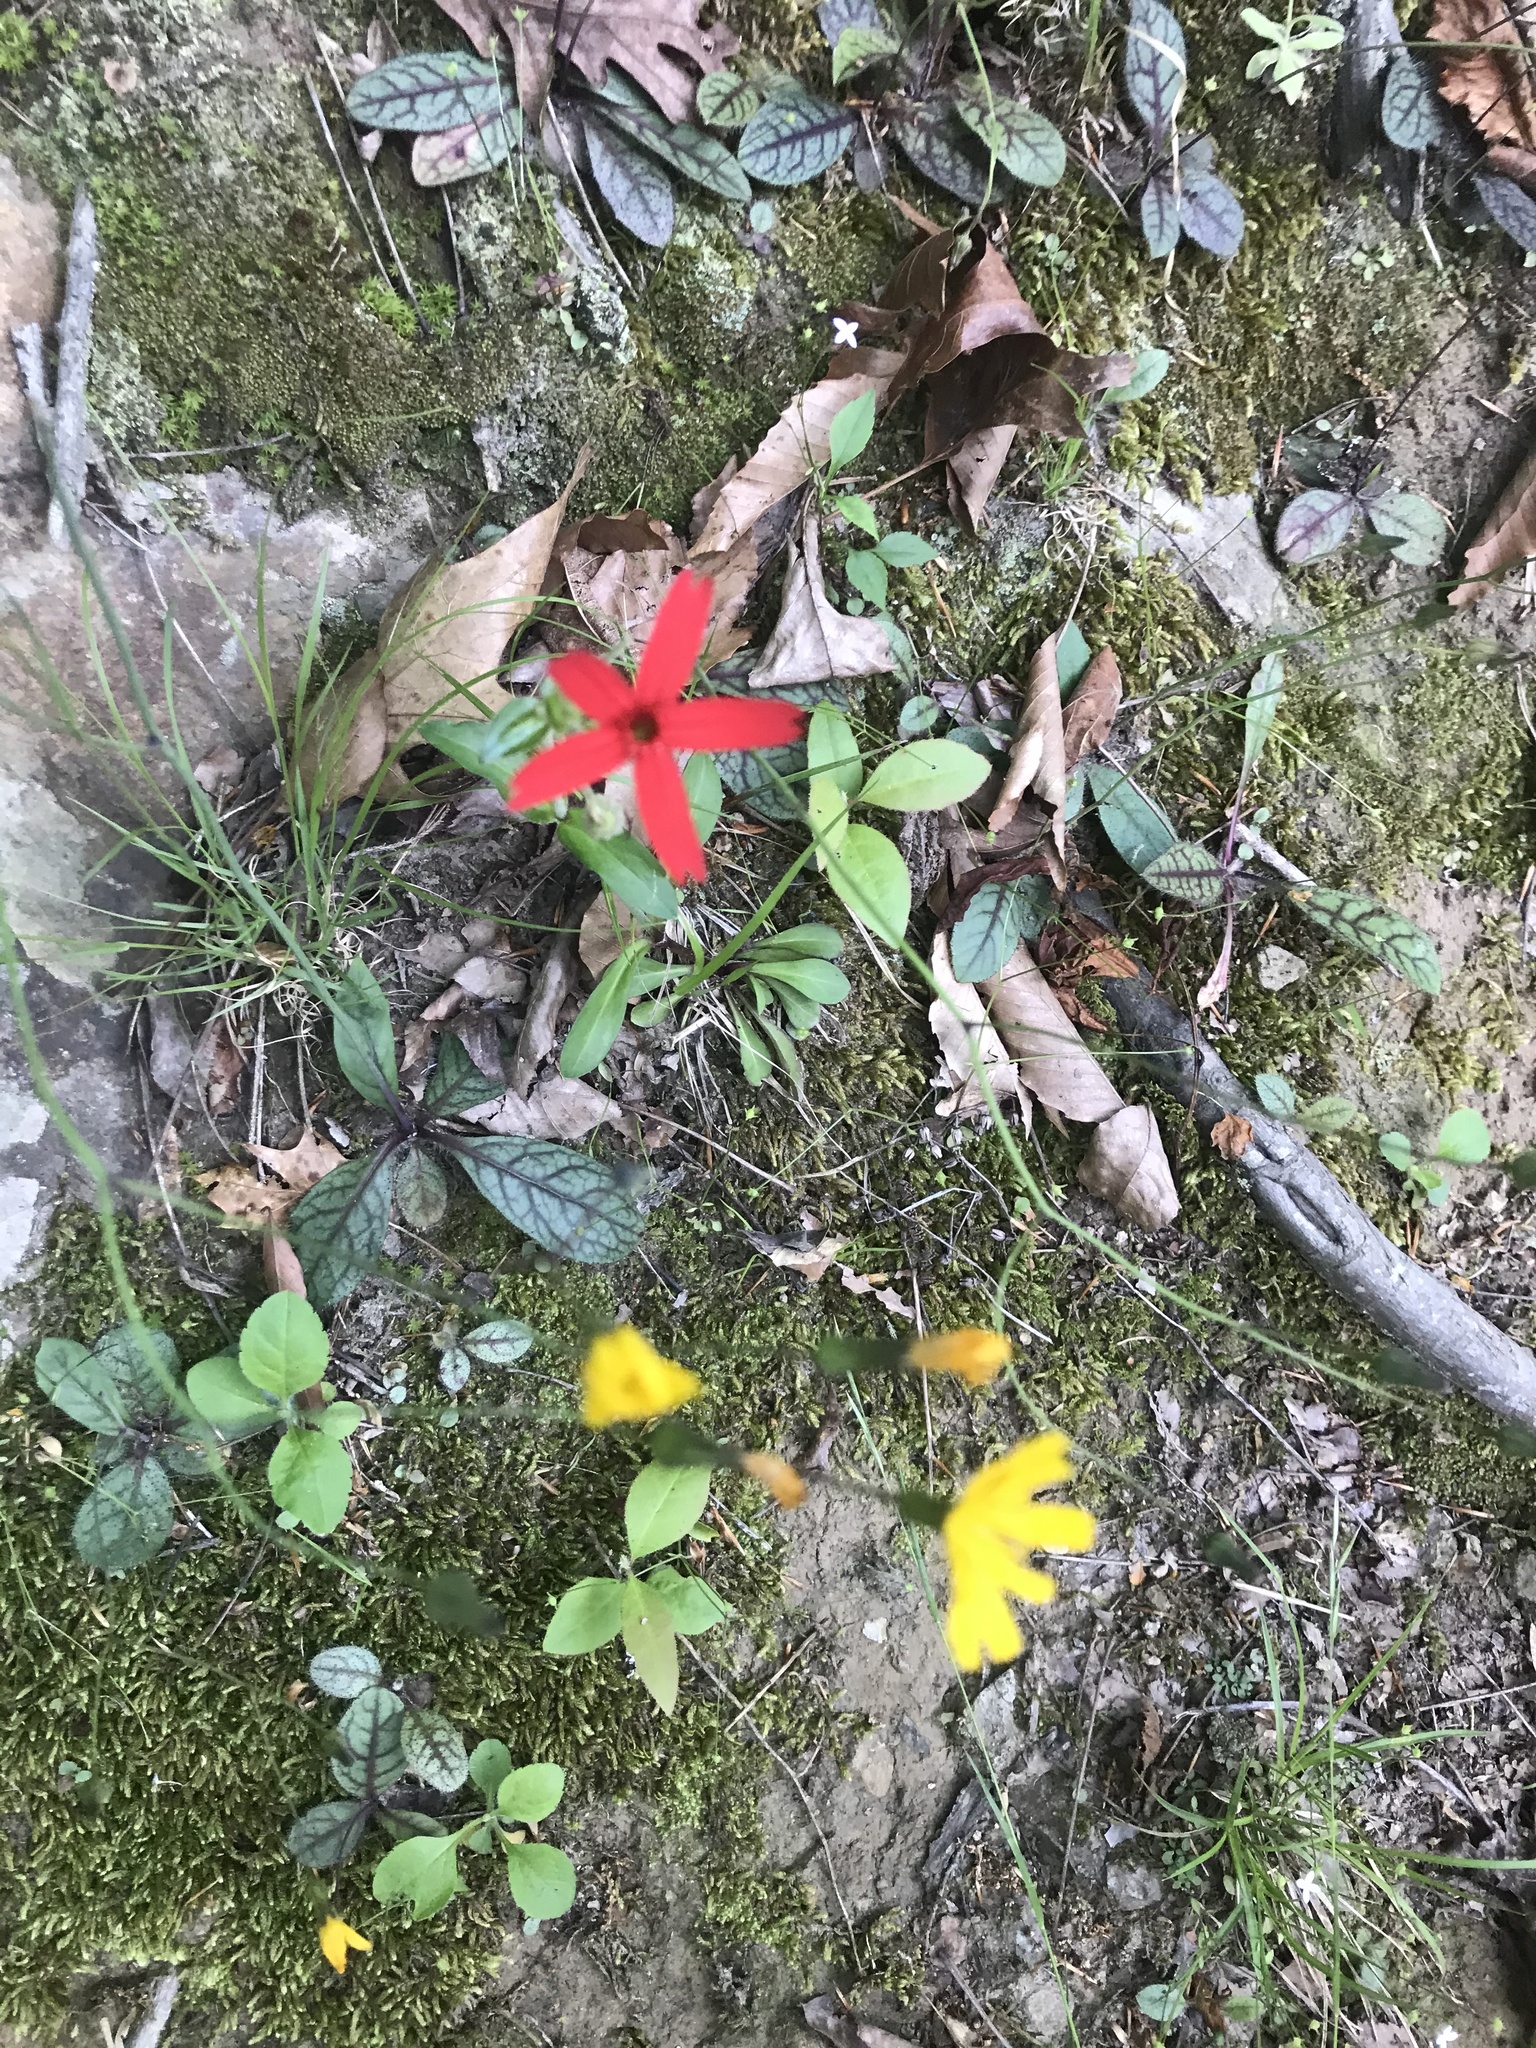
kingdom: Plantae
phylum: Tracheophyta
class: Magnoliopsida
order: Caryophyllales
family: Caryophyllaceae
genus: Silene
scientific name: Silene virginica
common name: Fire-pink
